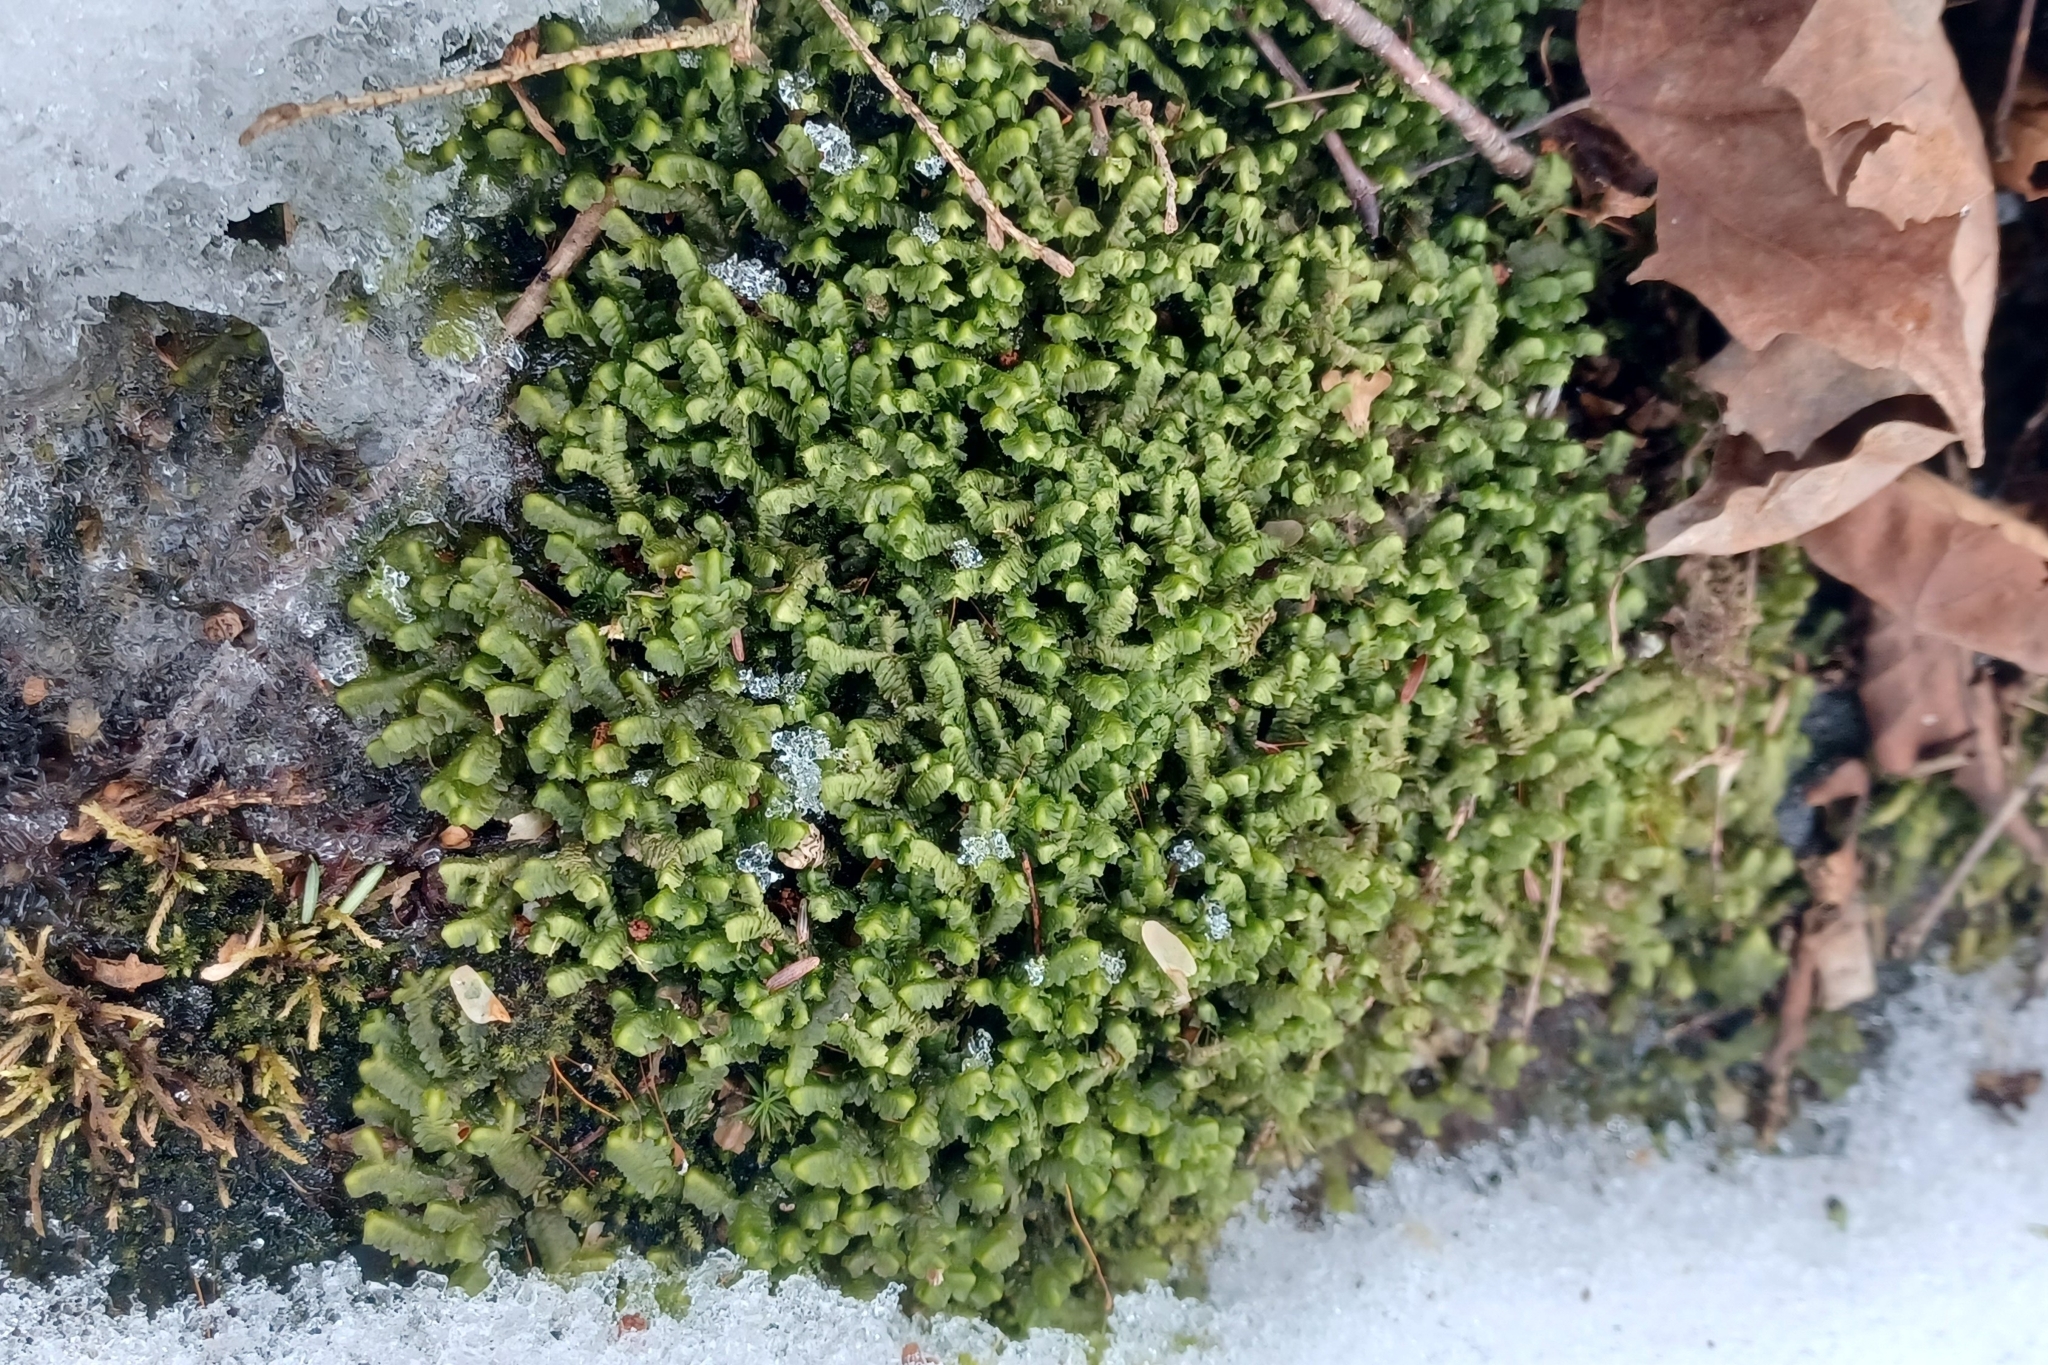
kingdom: Plantae
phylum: Marchantiophyta
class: Jungermanniopsida
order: Jungermanniales
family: Lepidoziaceae
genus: Bazzania
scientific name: Bazzania trilobata
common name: Three-lobed whipwort
